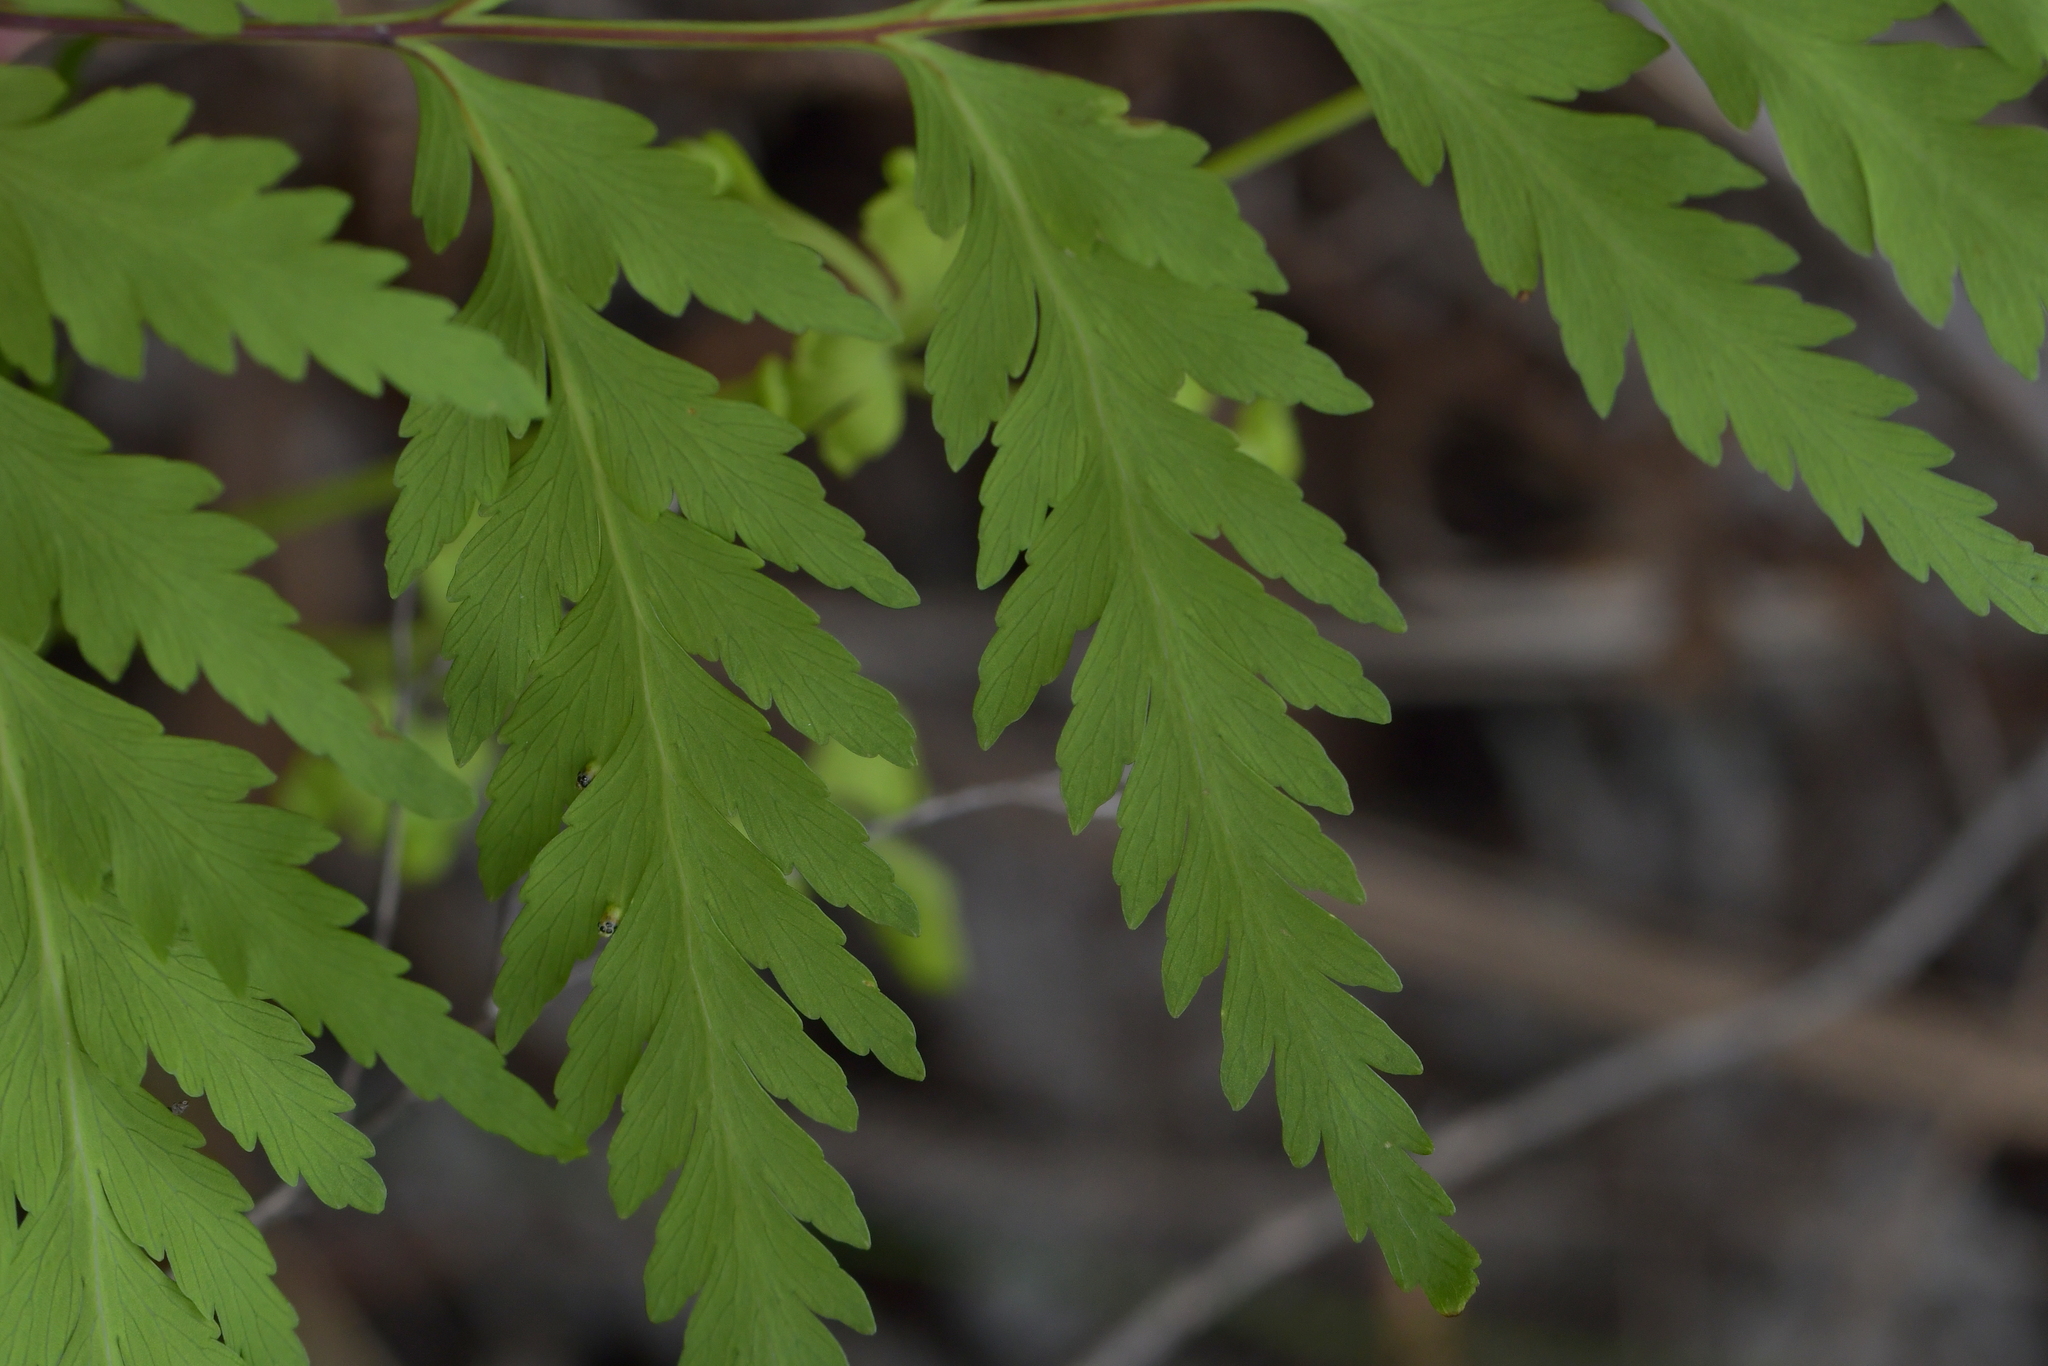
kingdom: Plantae
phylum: Tracheophyta
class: Polypodiopsida
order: Cyatheales
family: Loxsomataceae
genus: Loxsoma
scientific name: Loxsoma cunninghamii
